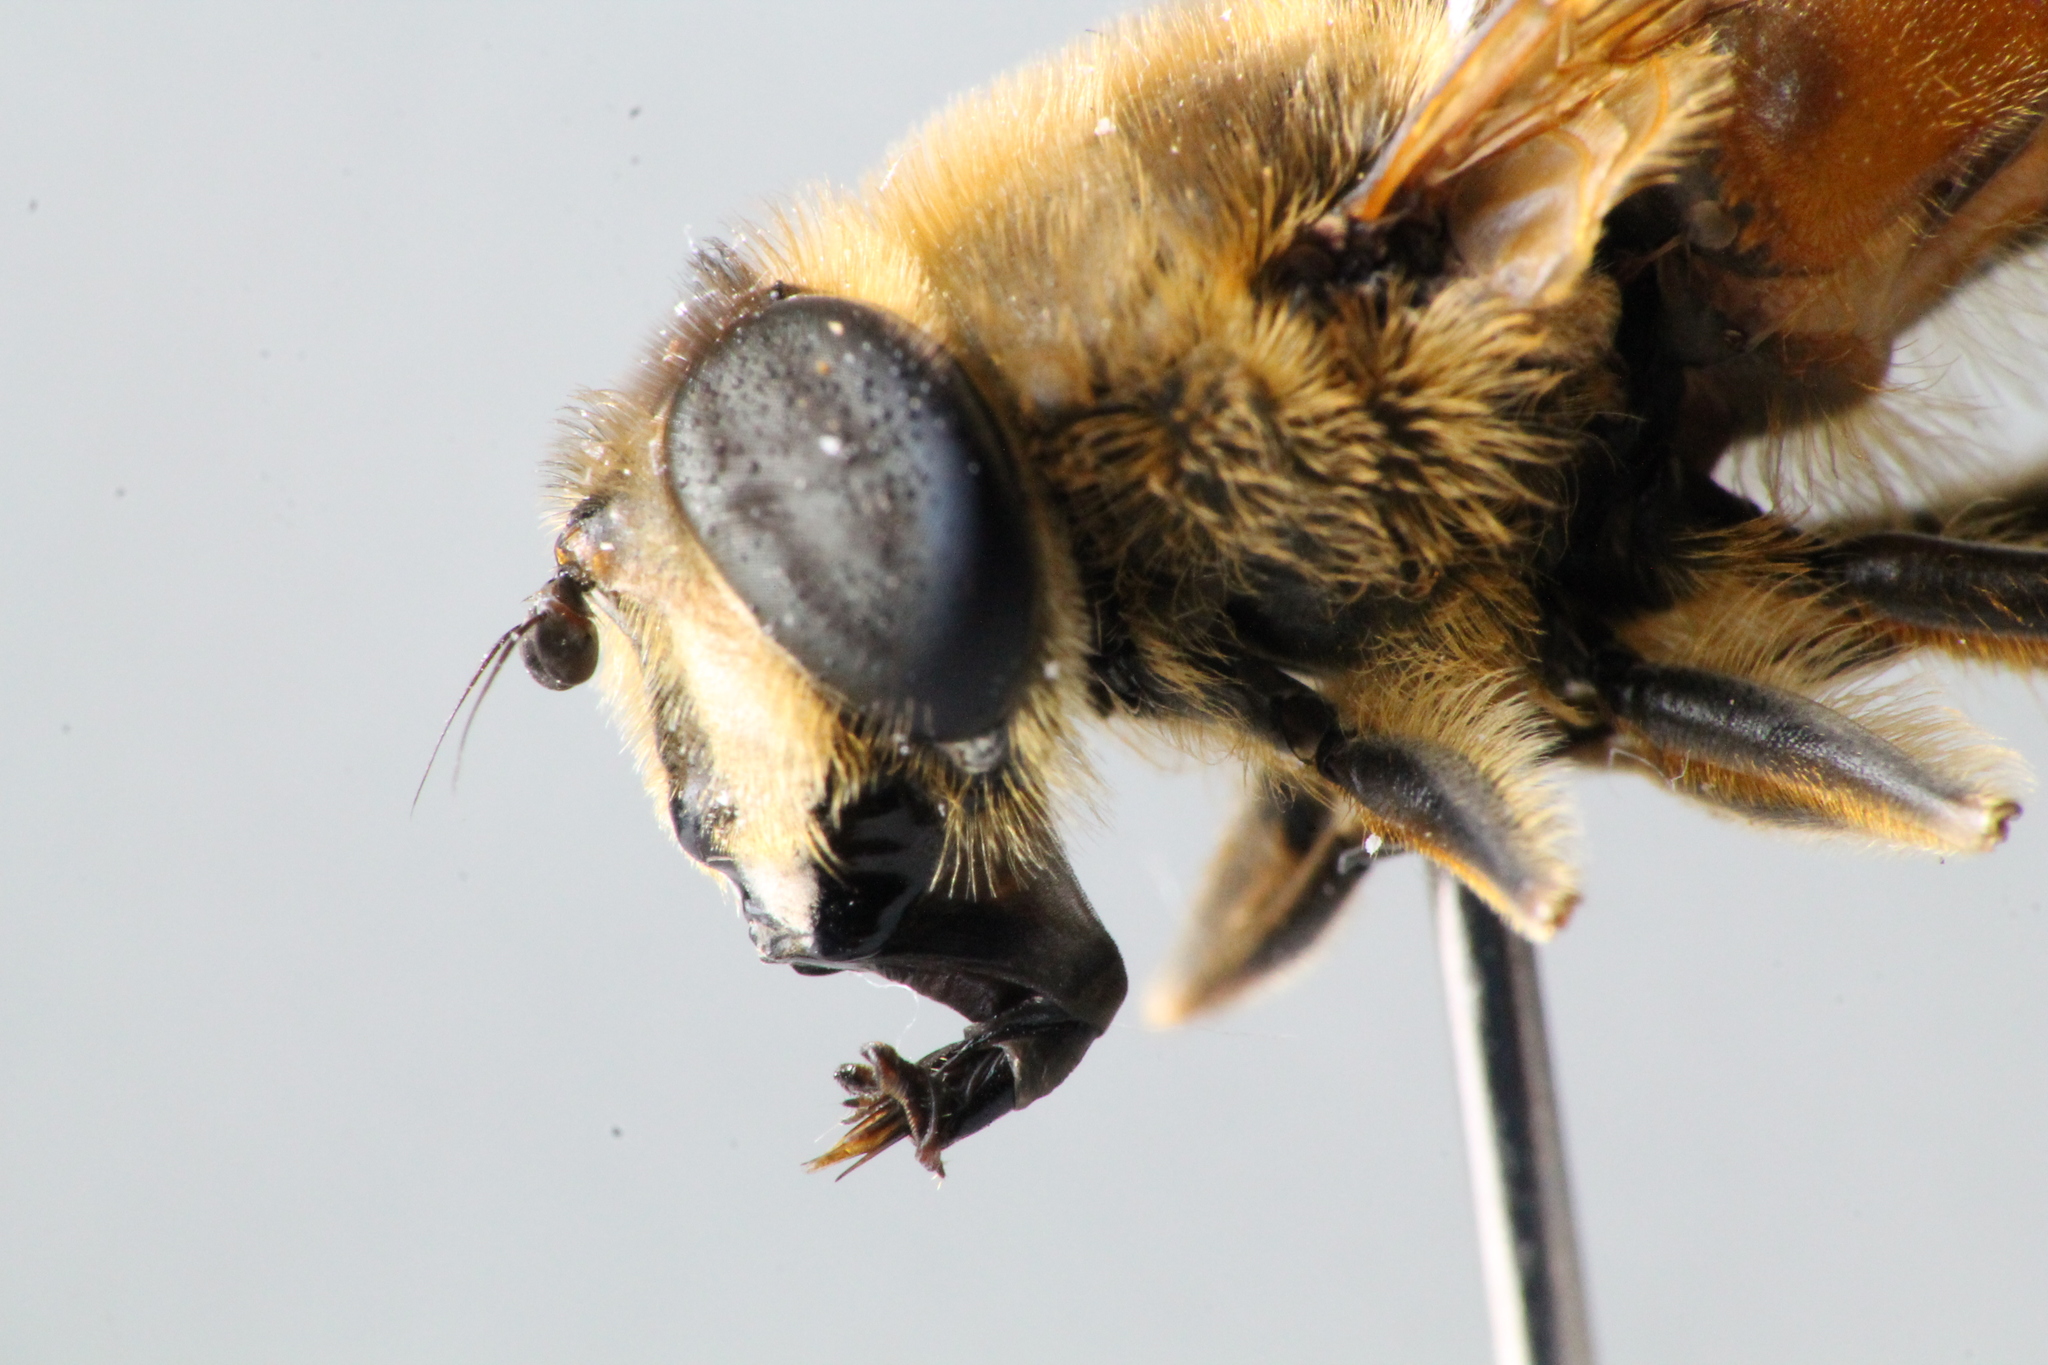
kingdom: Animalia
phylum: Arthropoda
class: Insecta
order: Diptera
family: Syrphidae
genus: Eristalis
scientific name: Eristalis tenax
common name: Drone fly
